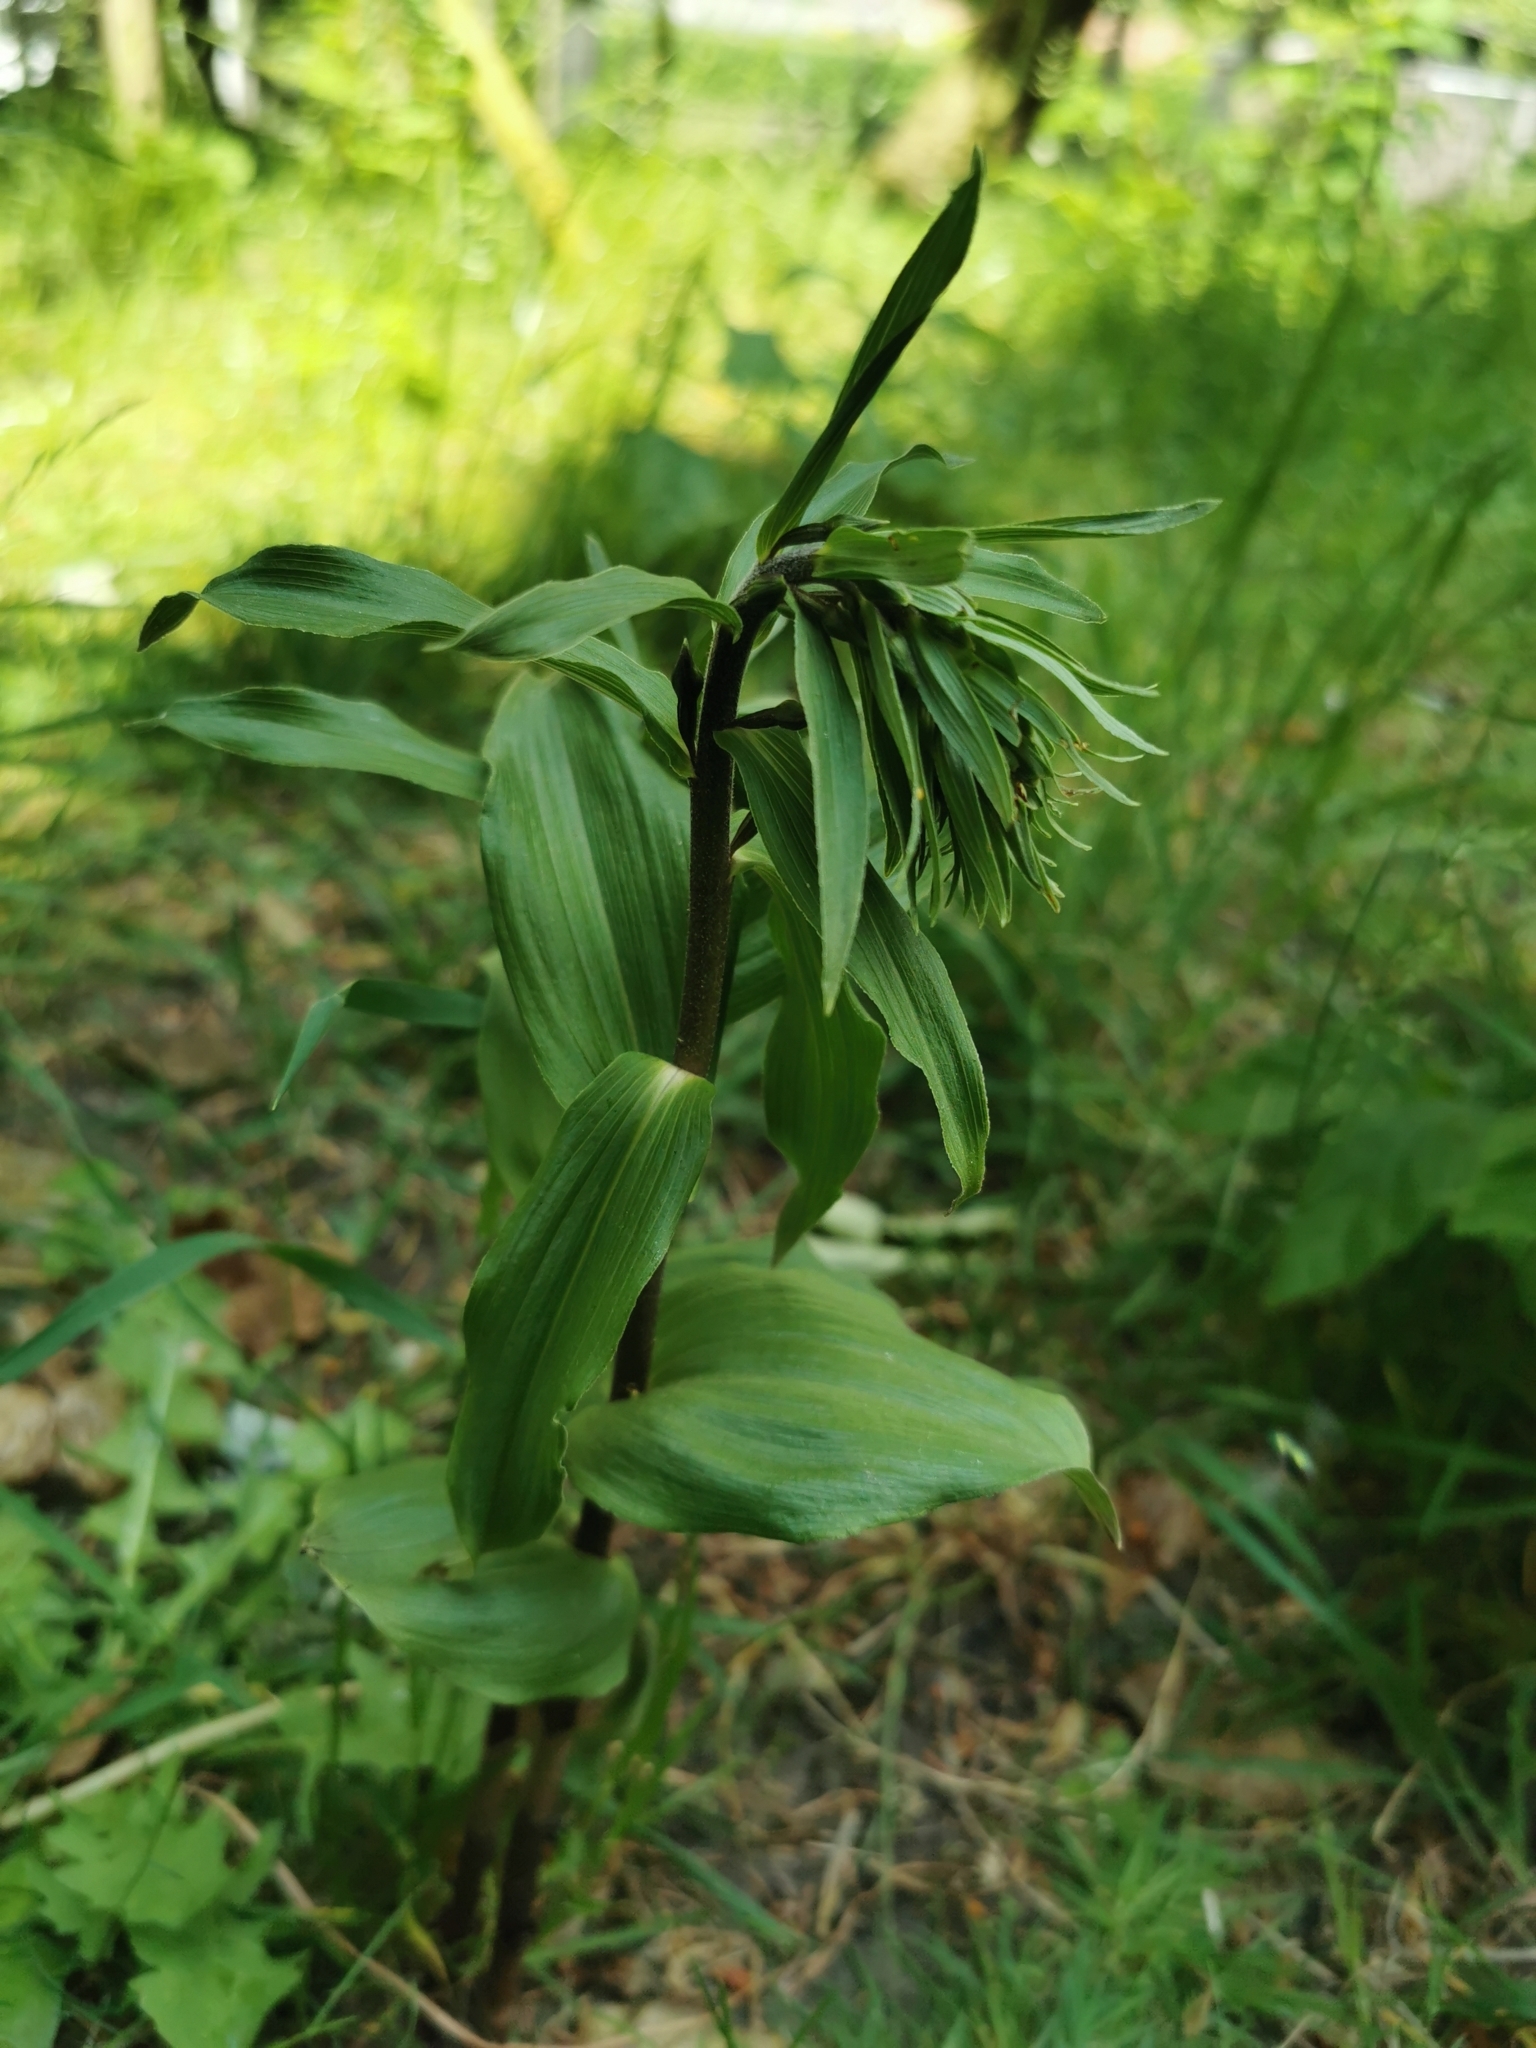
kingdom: Plantae
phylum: Tracheophyta
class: Liliopsida
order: Asparagales
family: Orchidaceae
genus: Epipactis
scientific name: Epipactis helleborine
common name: Broad-leaved helleborine
